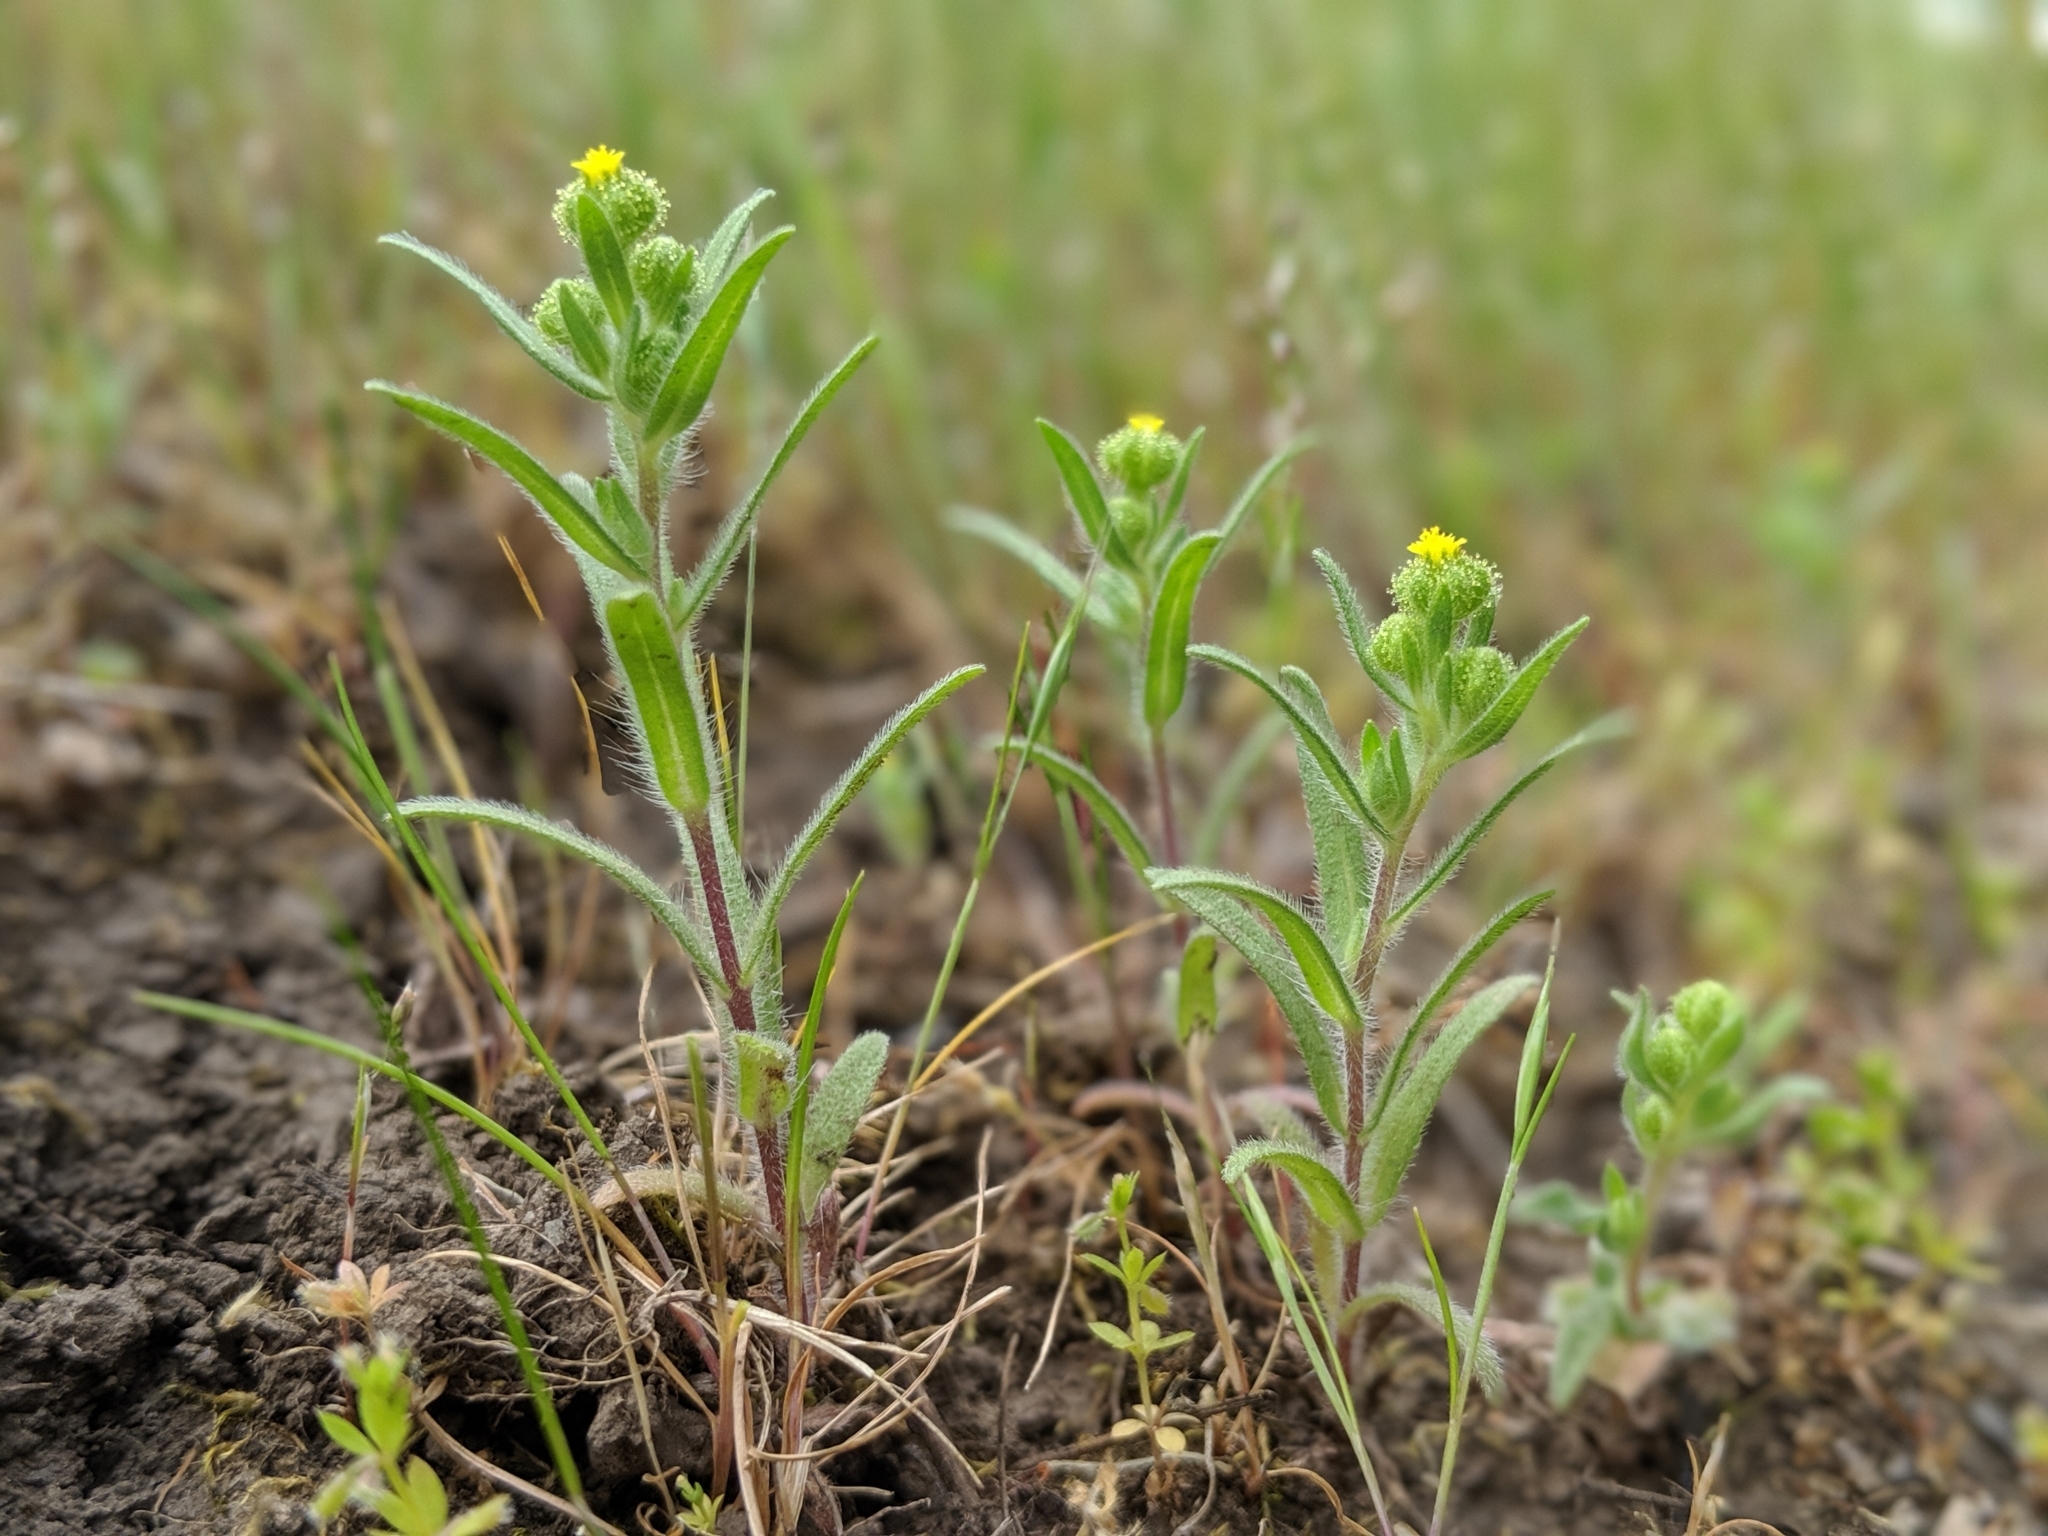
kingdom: Plantae
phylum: Tracheophyta
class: Magnoliopsida
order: Asterales
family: Asteraceae
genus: Madia
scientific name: Madia exigua
